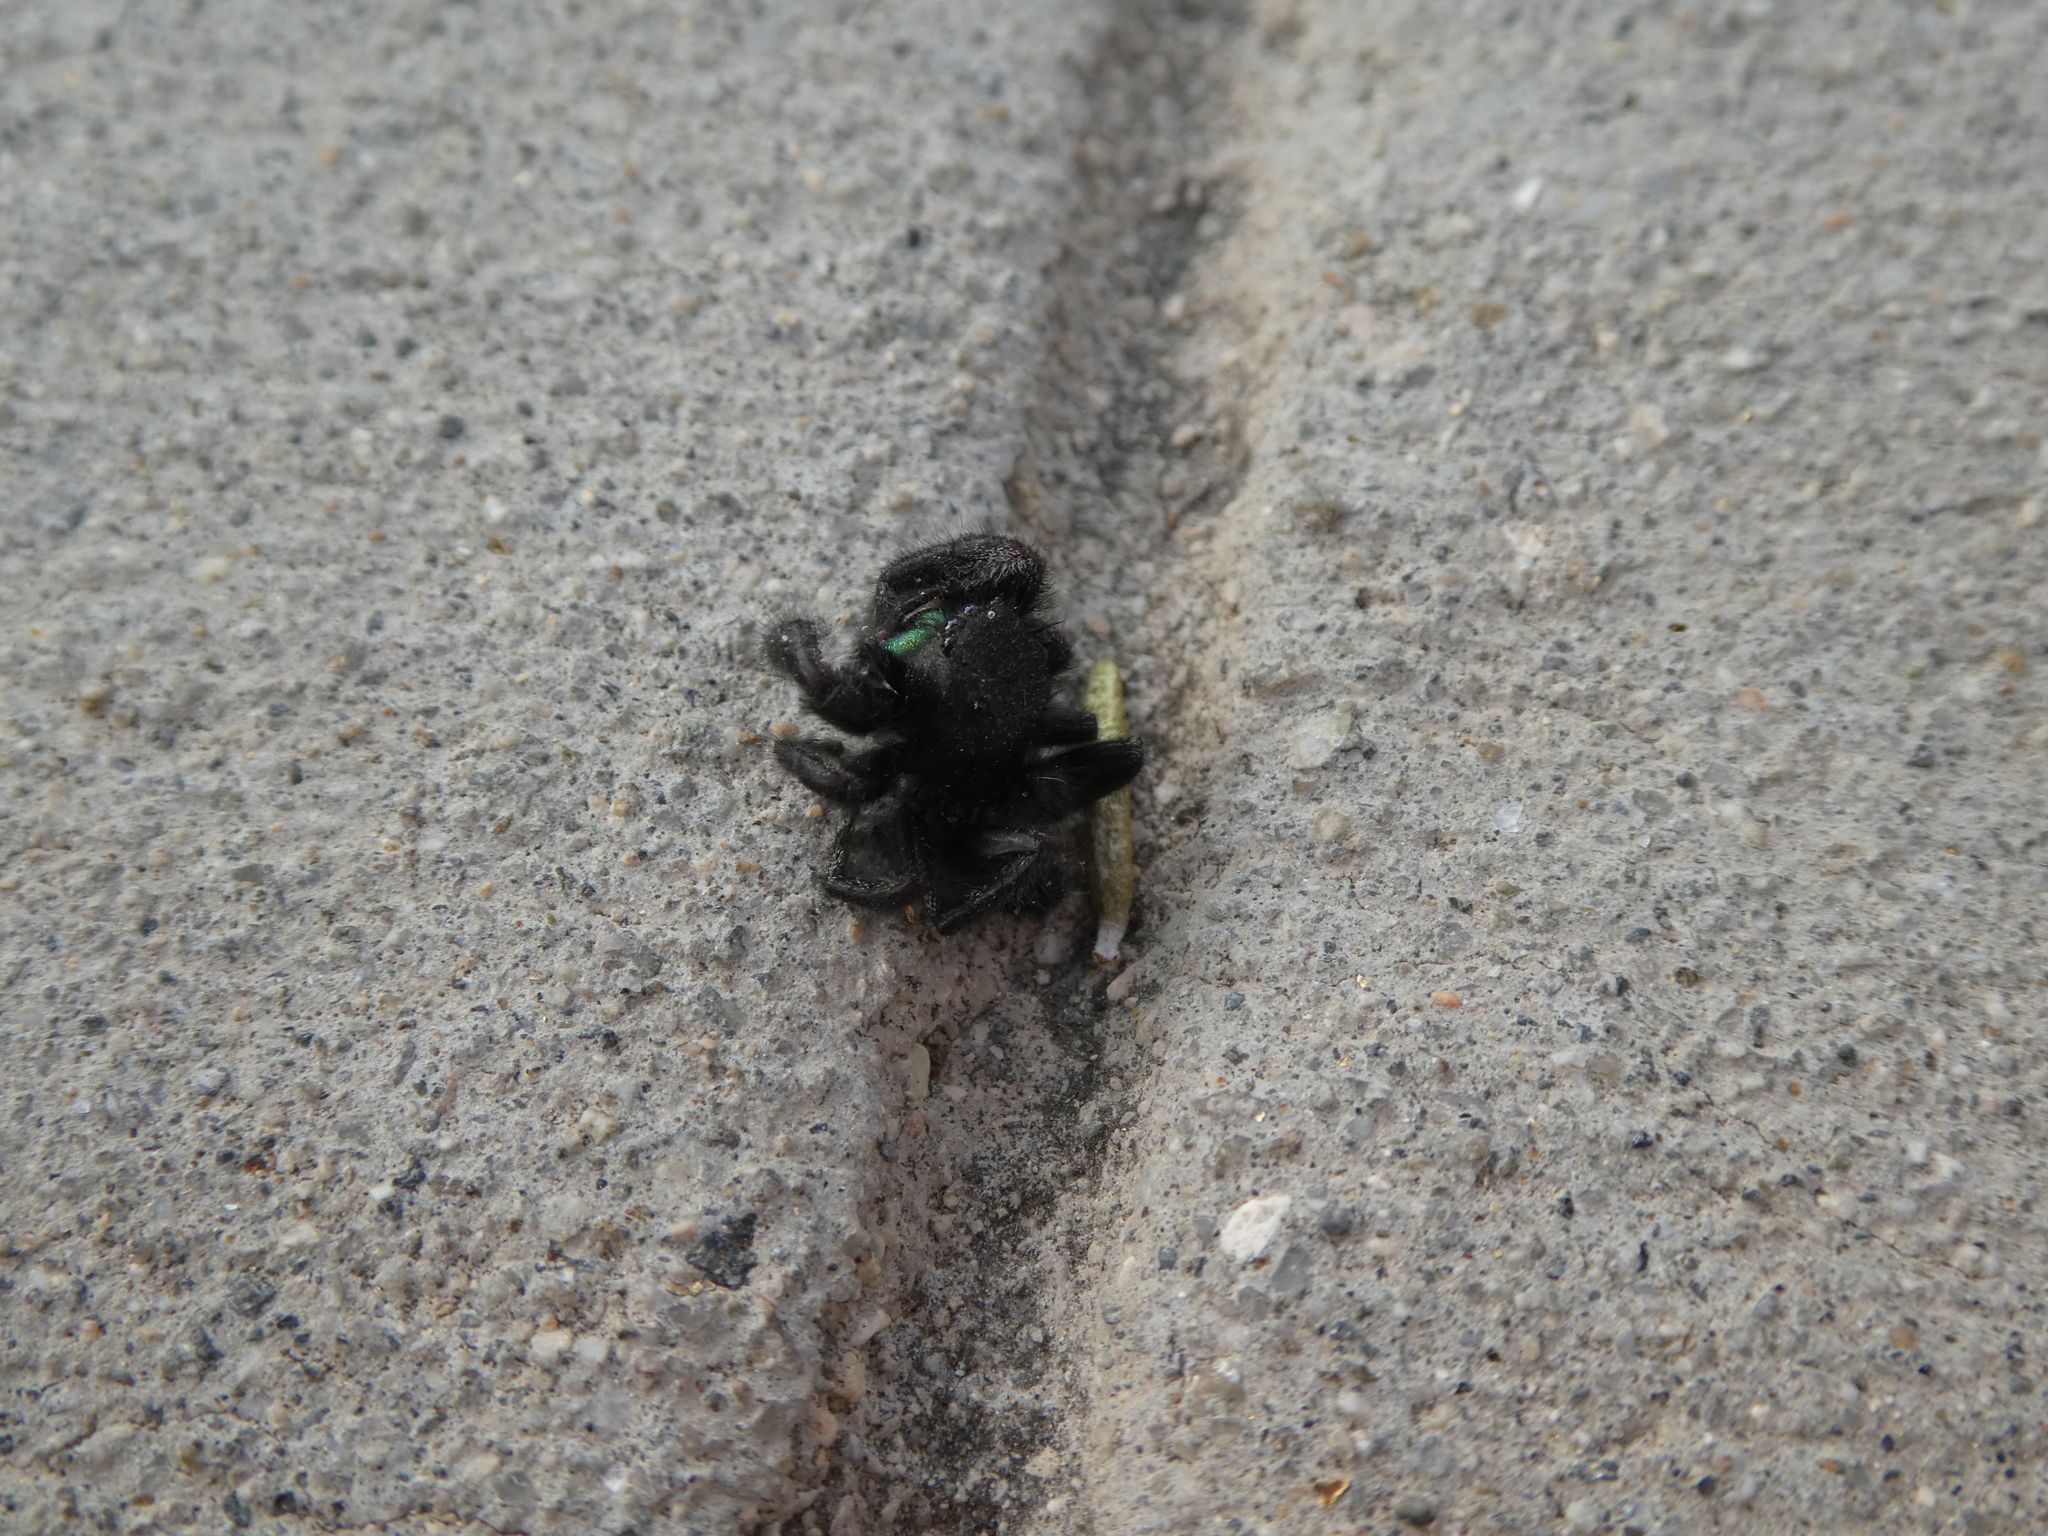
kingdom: Animalia
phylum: Arthropoda
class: Arachnida
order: Araneae
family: Salticidae
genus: Phidippus
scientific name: Phidippus audax
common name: Bold jumper
